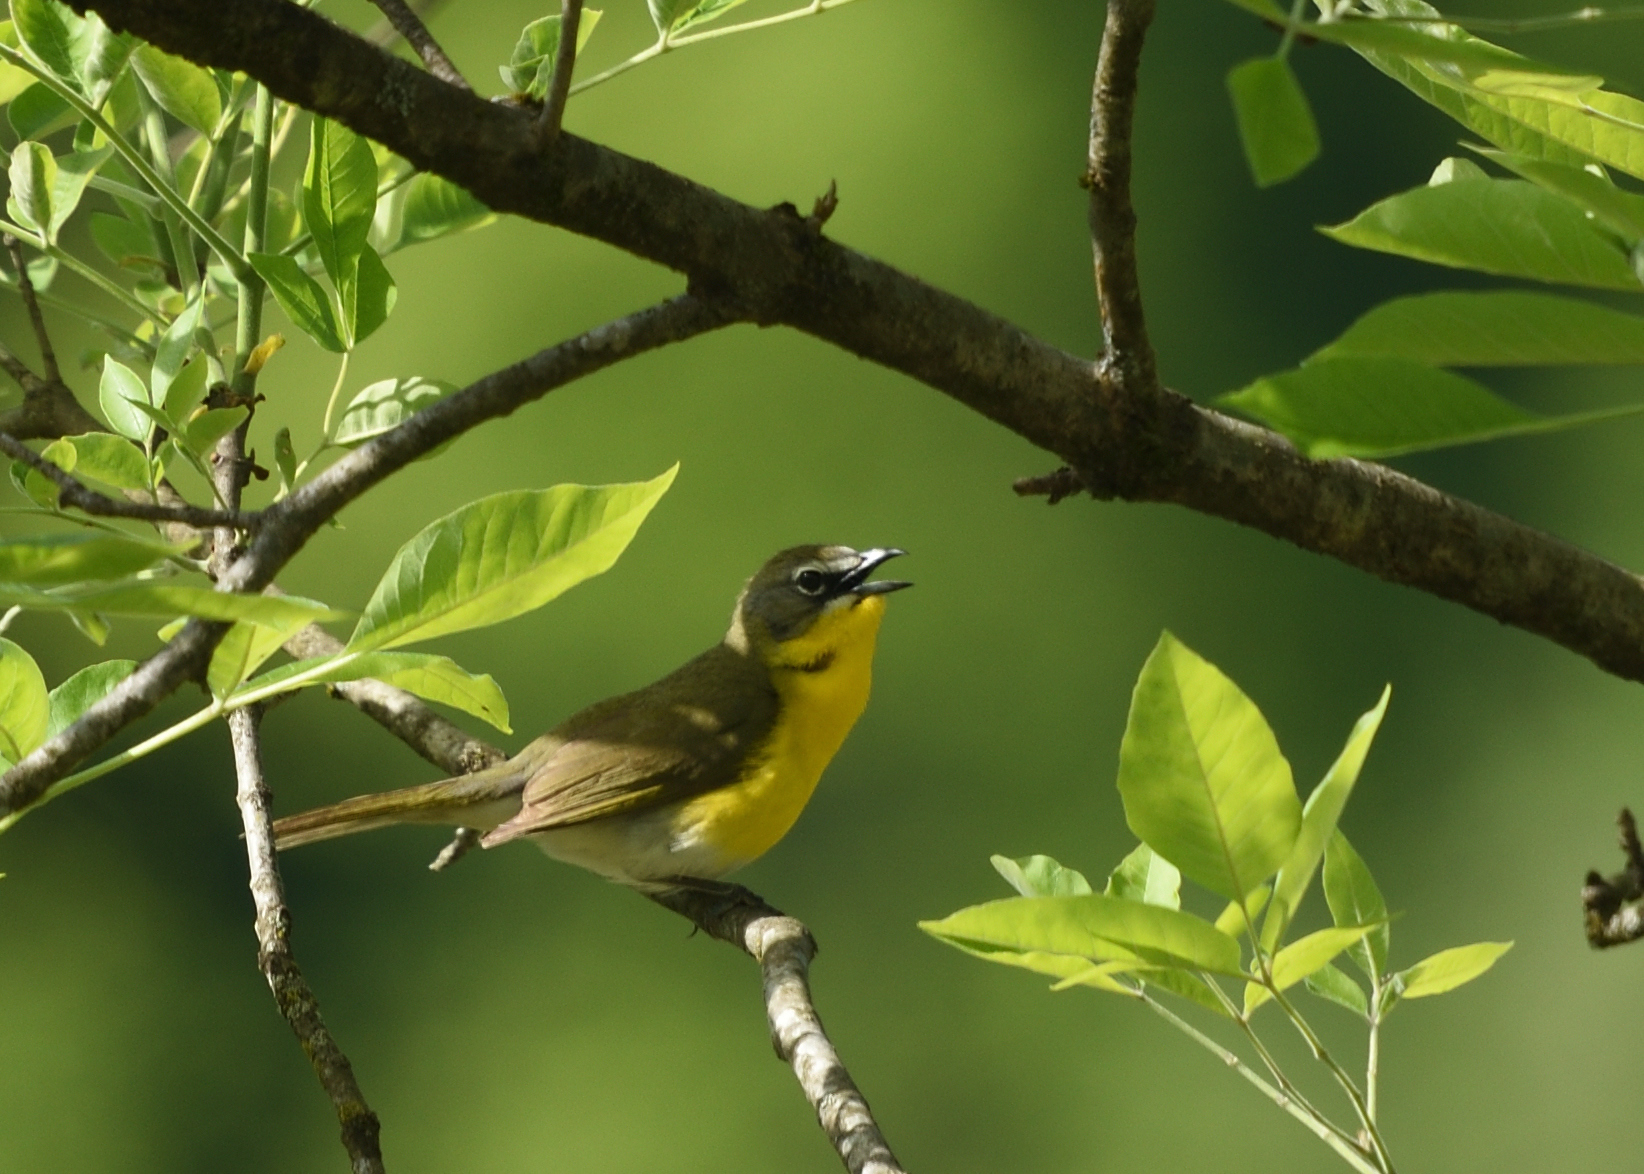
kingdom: Animalia
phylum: Chordata
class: Aves
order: Passeriformes
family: Parulidae
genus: Icteria
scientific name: Icteria virens
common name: Yellow-breasted chat
